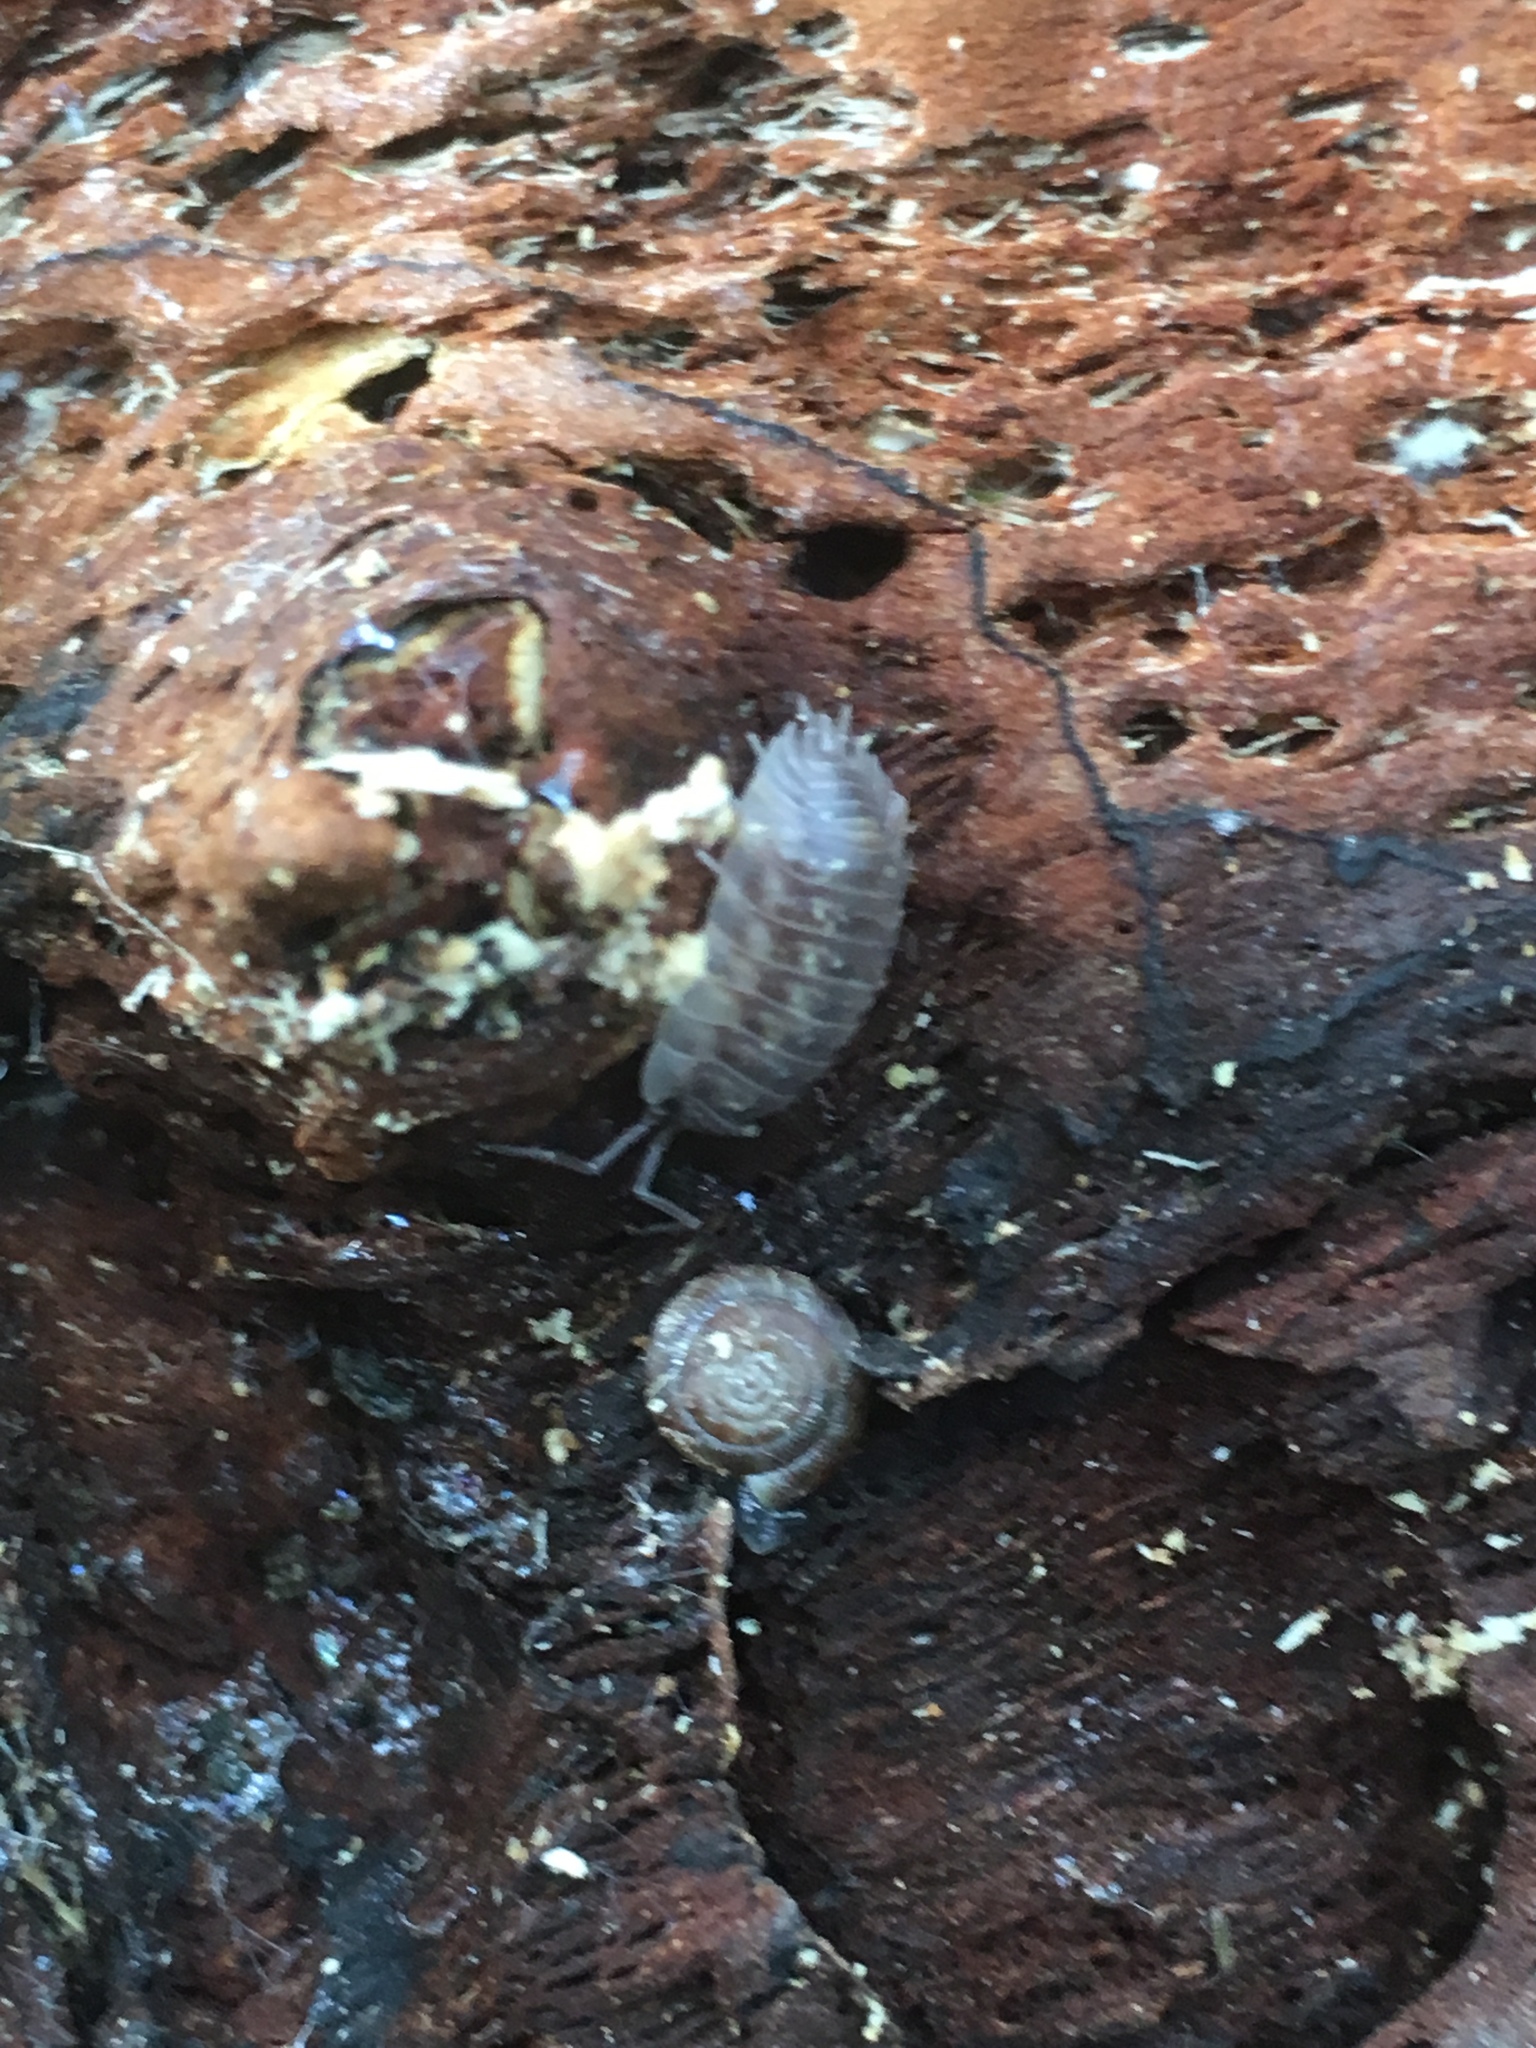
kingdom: Animalia
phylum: Arthropoda
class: Malacostraca
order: Isopoda
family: Oniscidae
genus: Oniscus
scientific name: Oniscus asellus
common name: Common shiny woodlouse
